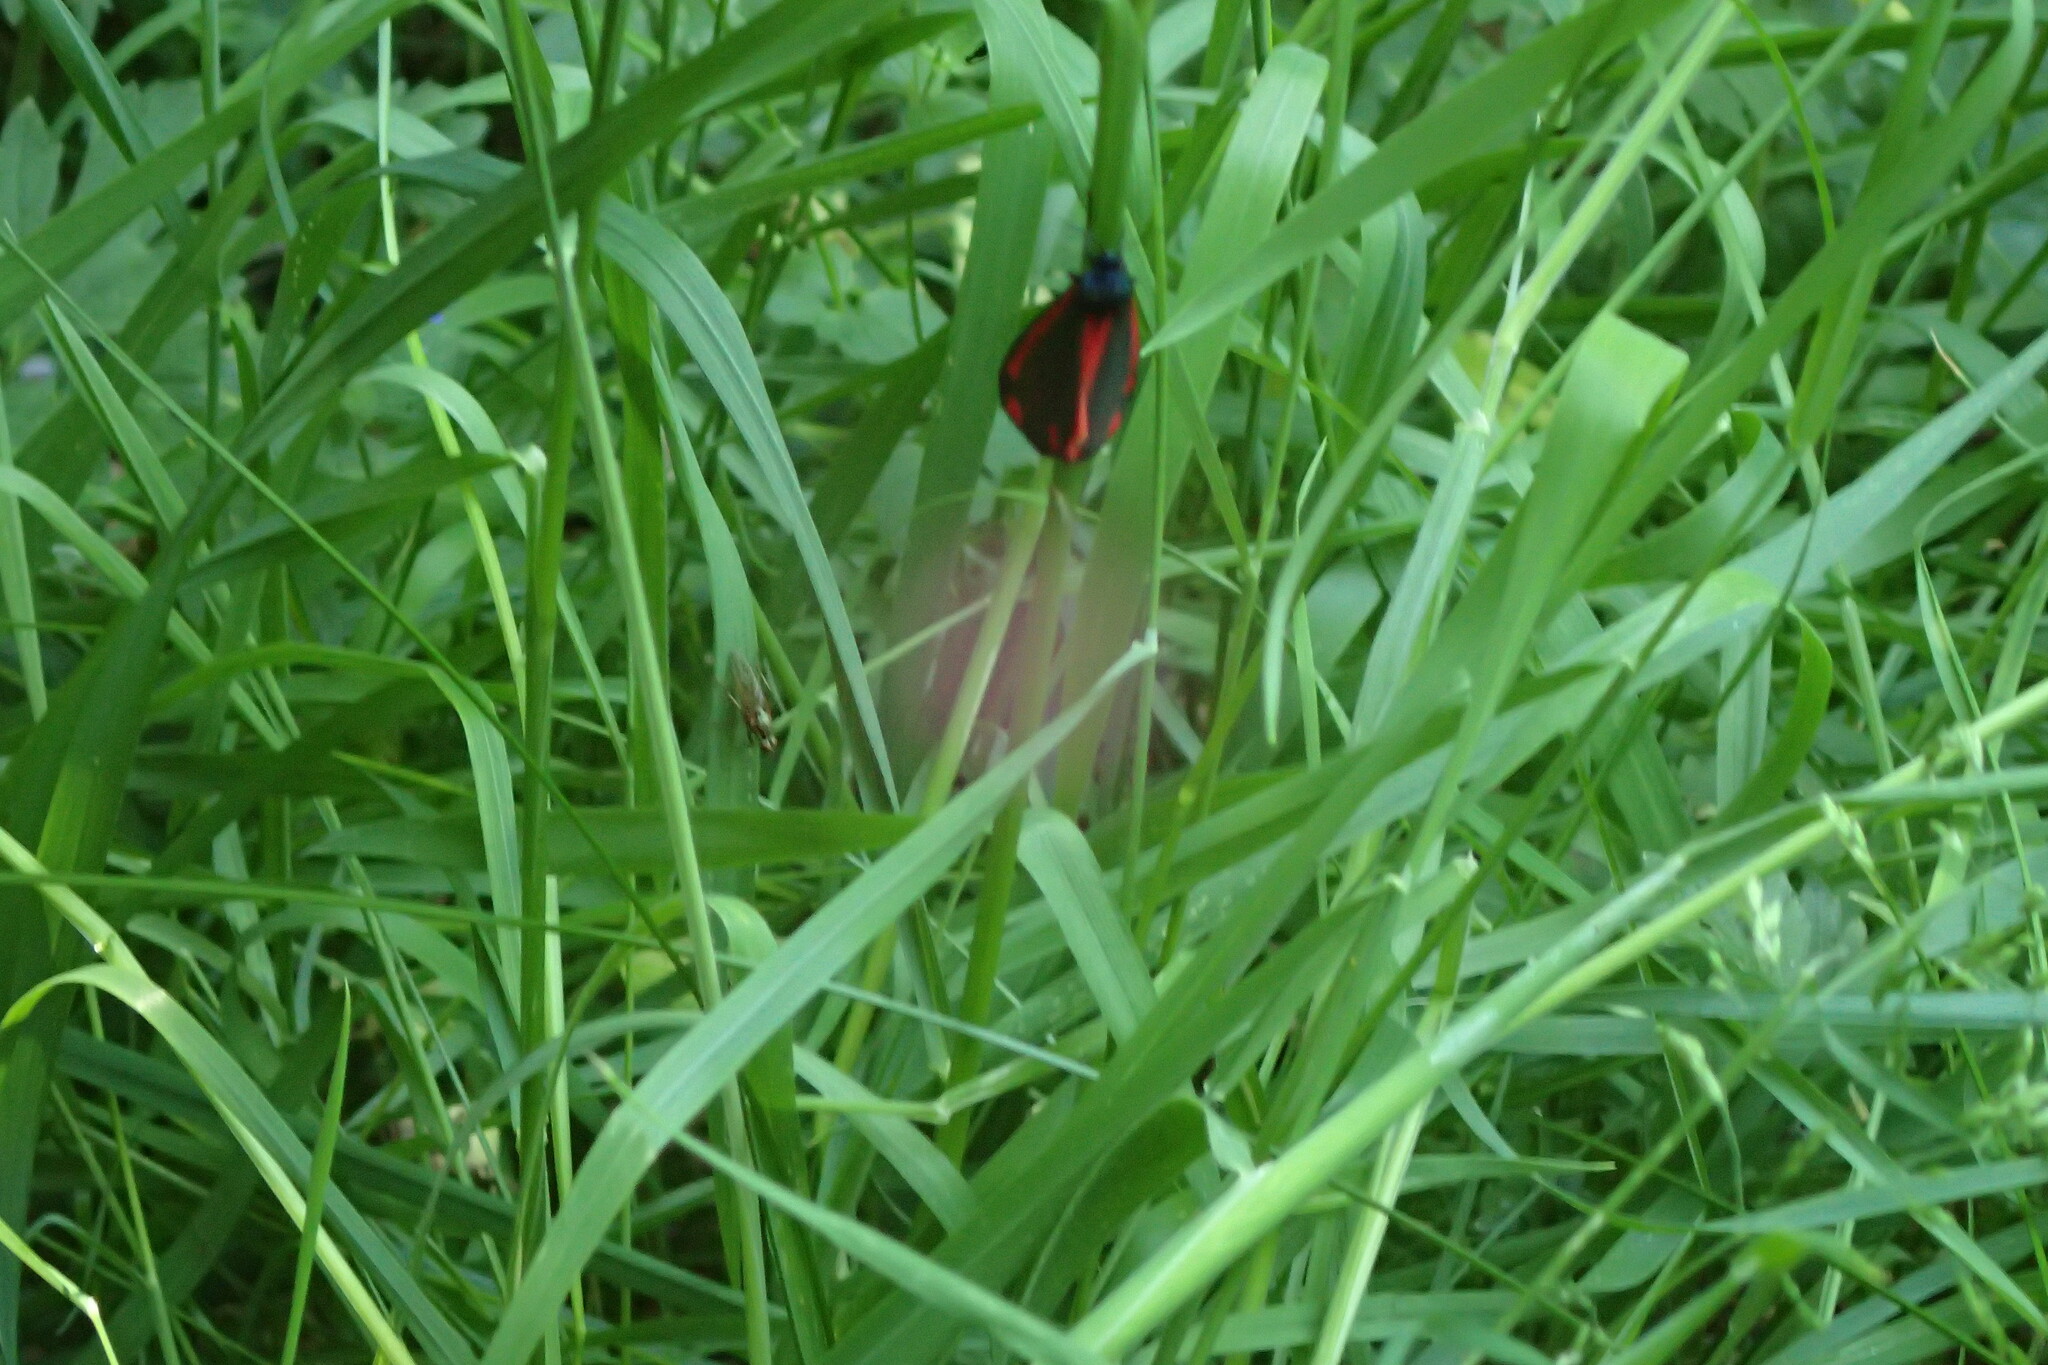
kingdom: Animalia
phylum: Arthropoda
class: Insecta
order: Lepidoptera
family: Erebidae
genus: Tyria
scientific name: Tyria jacobaeae
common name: Cinnabar
